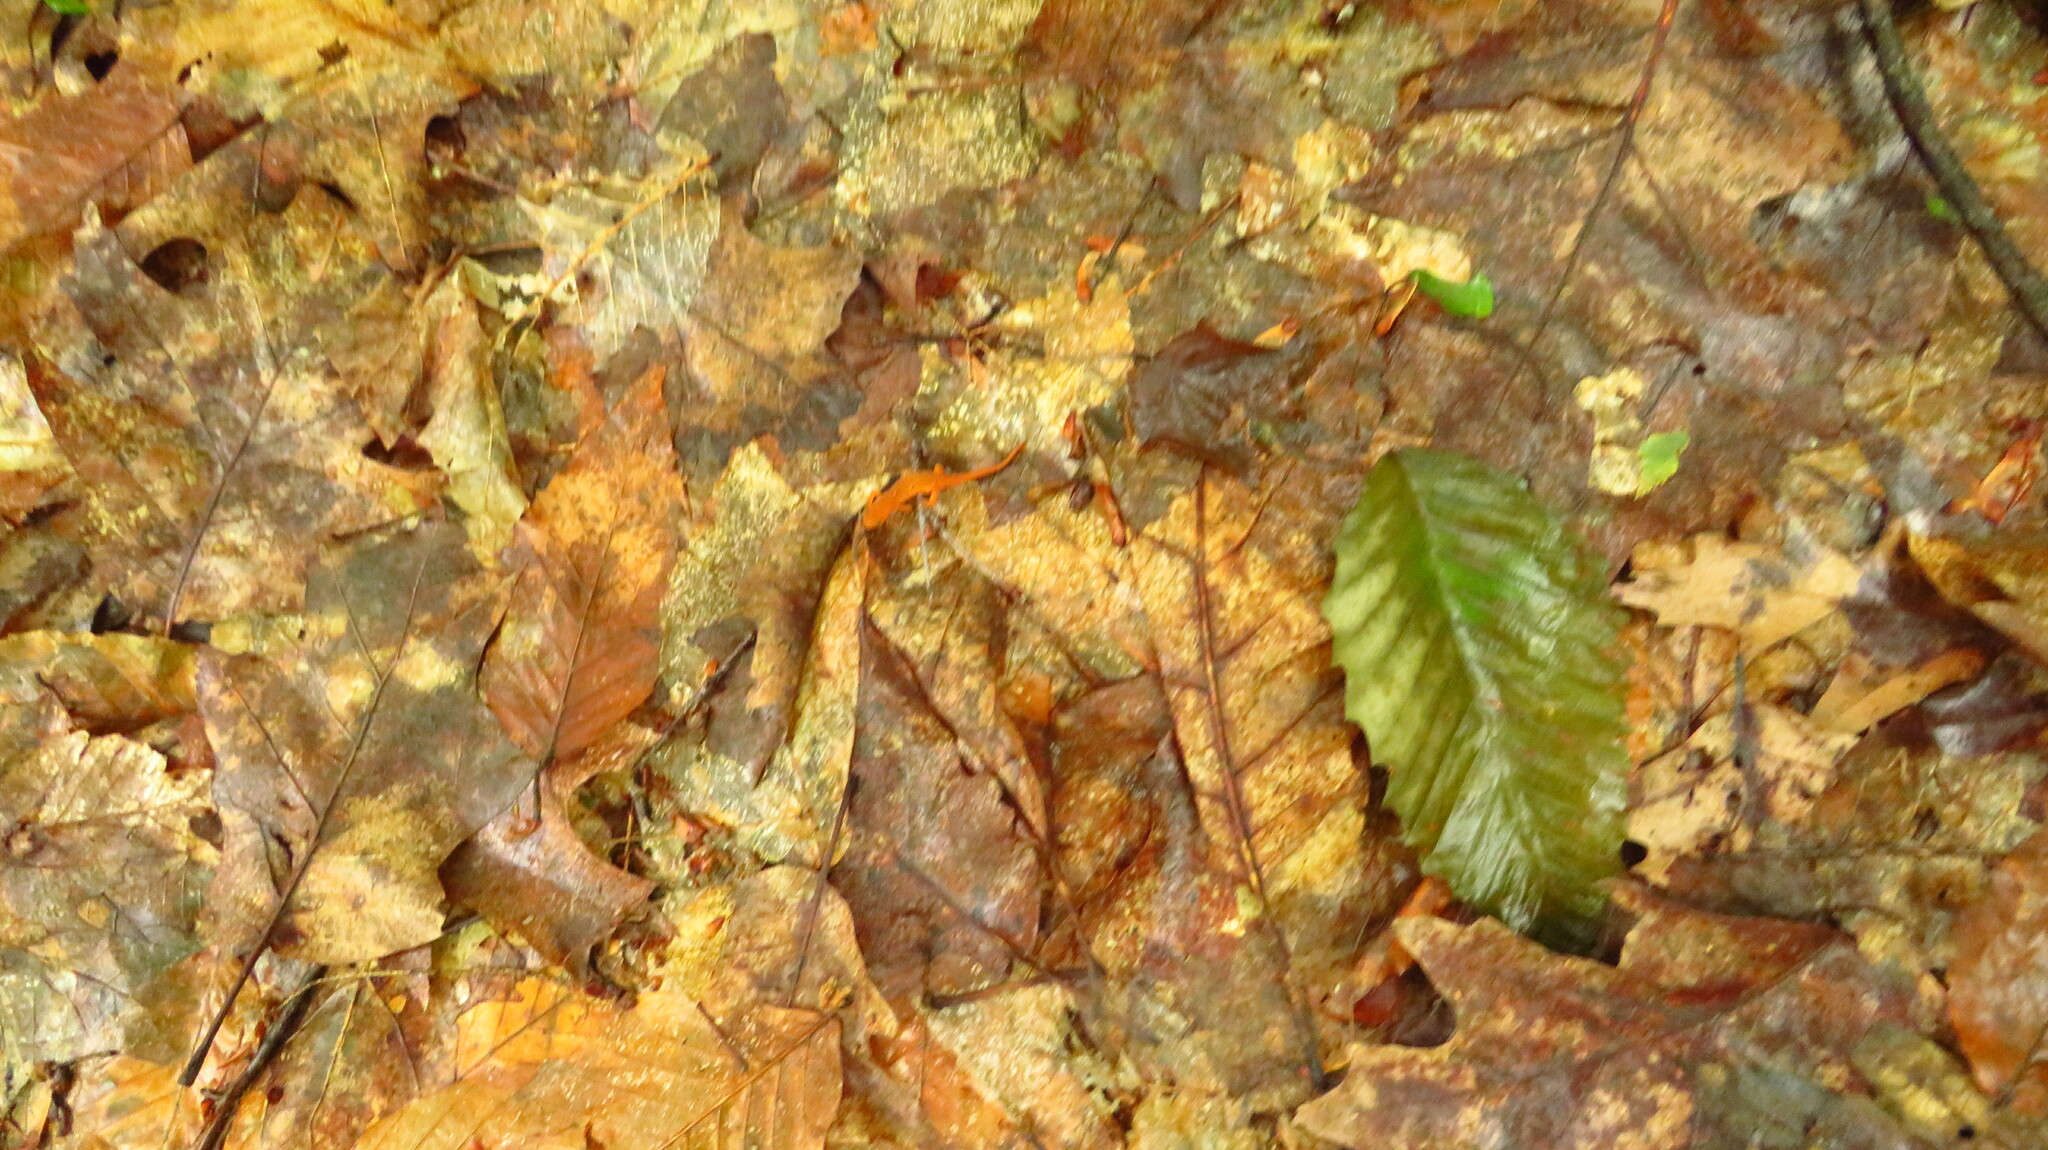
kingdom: Animalia
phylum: Chordata
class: Amphibia
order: Caudata
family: Salamandridae
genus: Notophthalmus
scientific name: Notophthalmus viridescens
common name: Eastern newt
